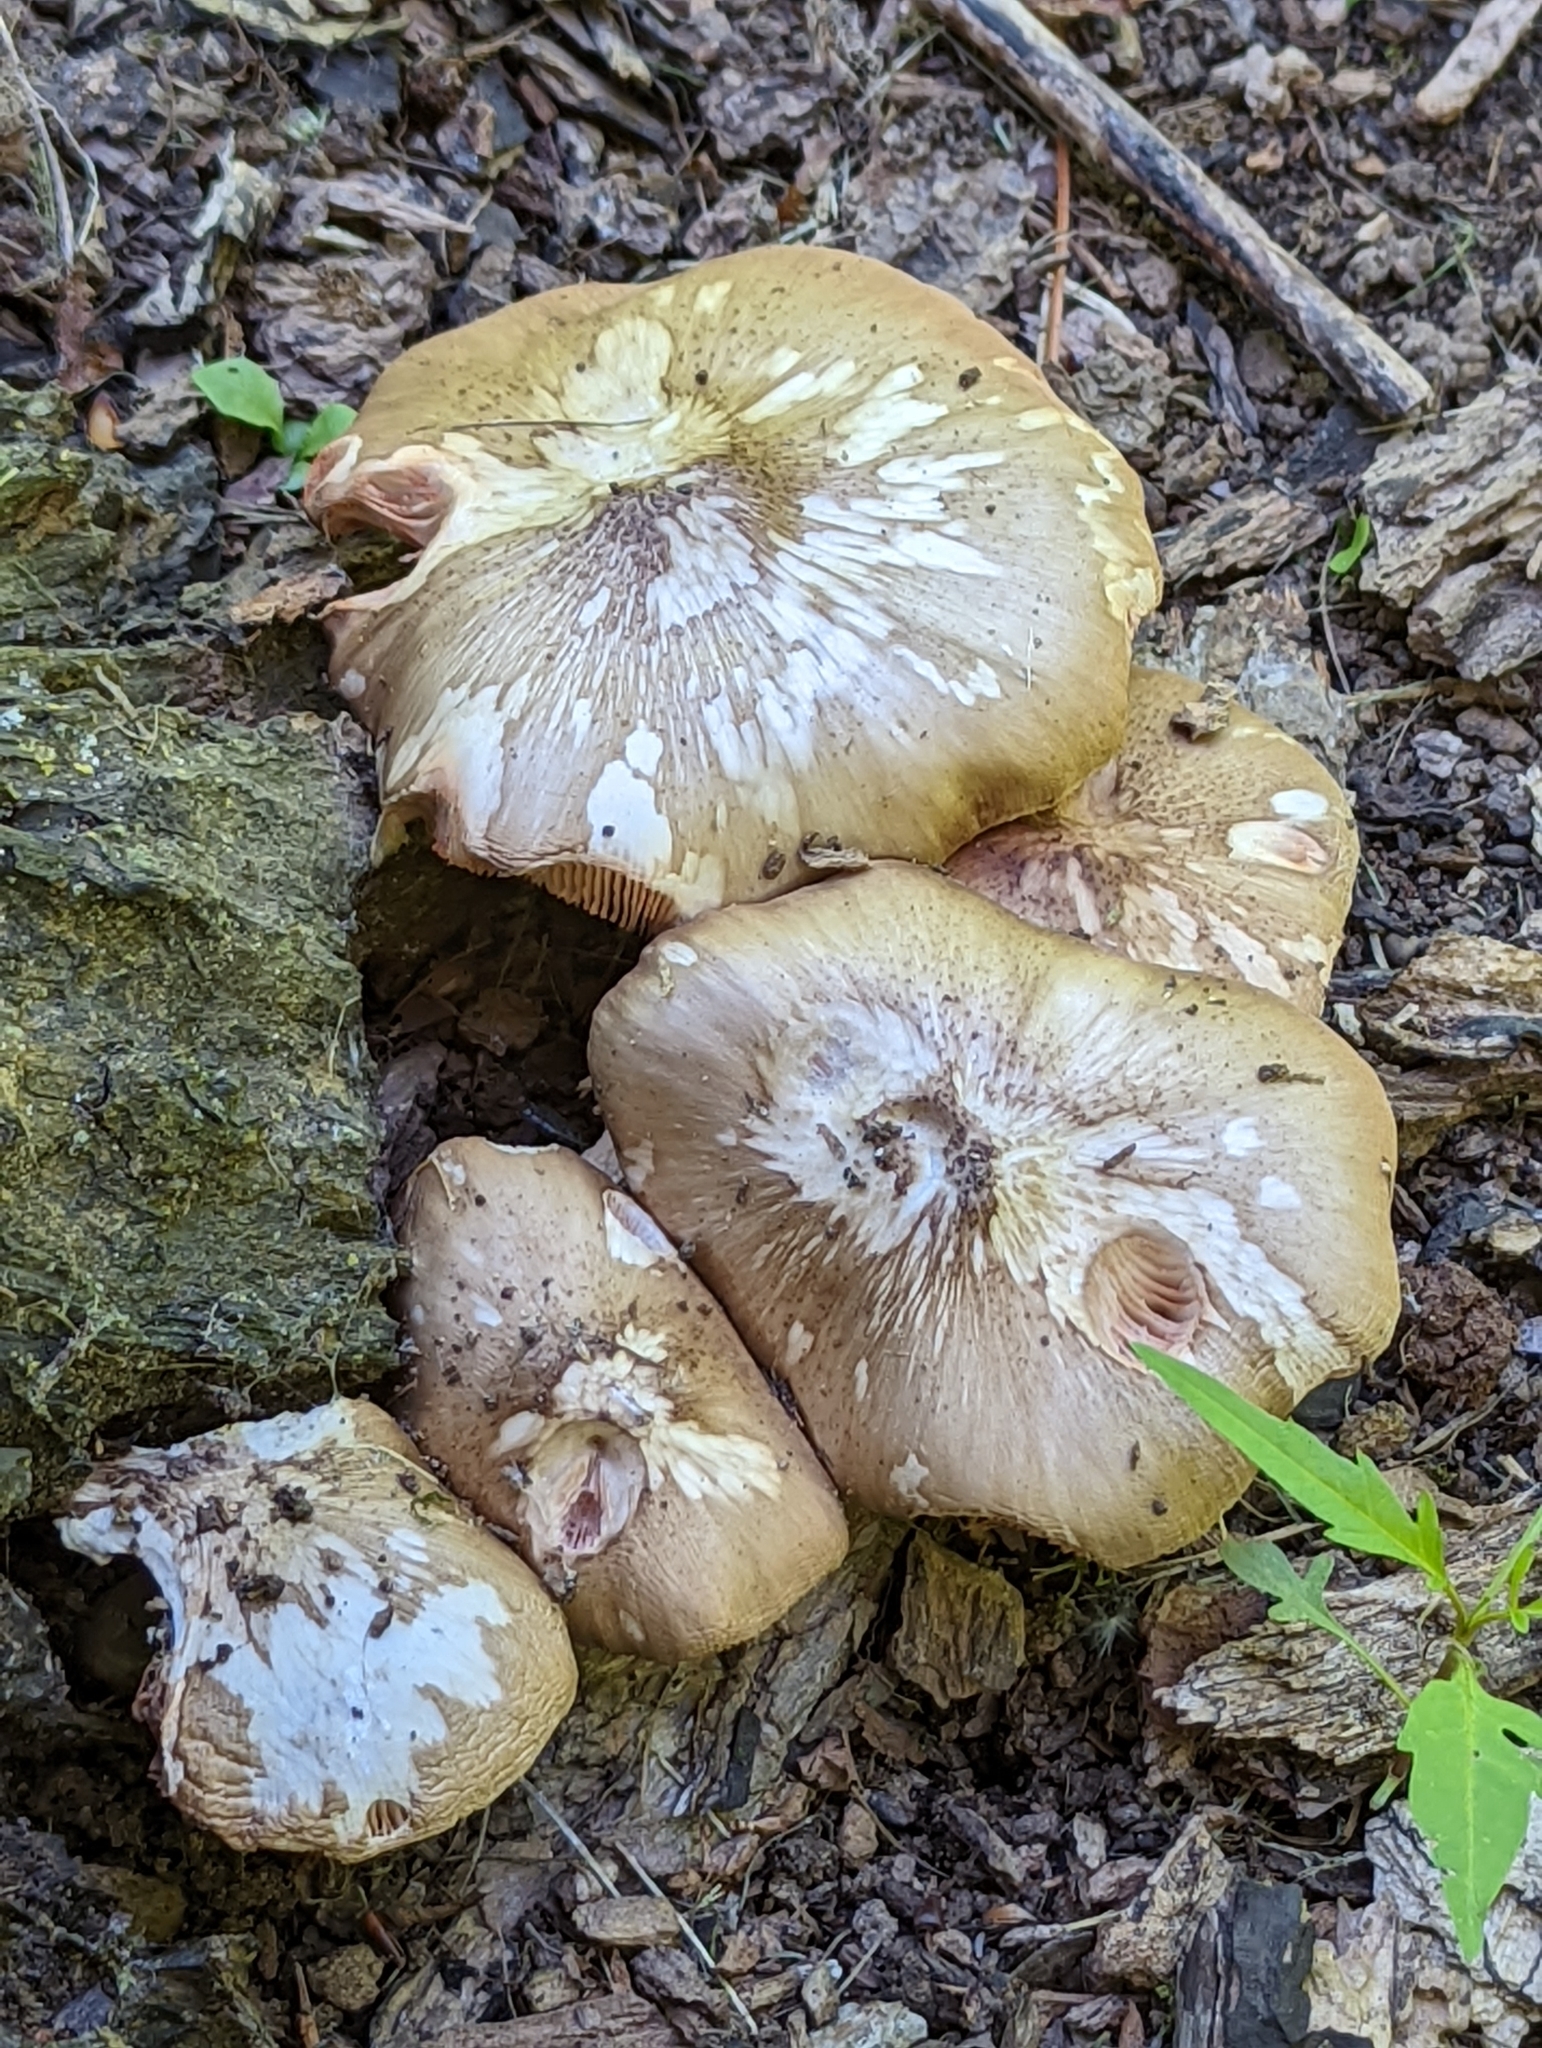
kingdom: Fungi
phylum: Basidiomycota
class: Agaricomycetes
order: Agaricales
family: Pluteaceae
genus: Pluteus
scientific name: Pluteus petasatus
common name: Scaly shield
